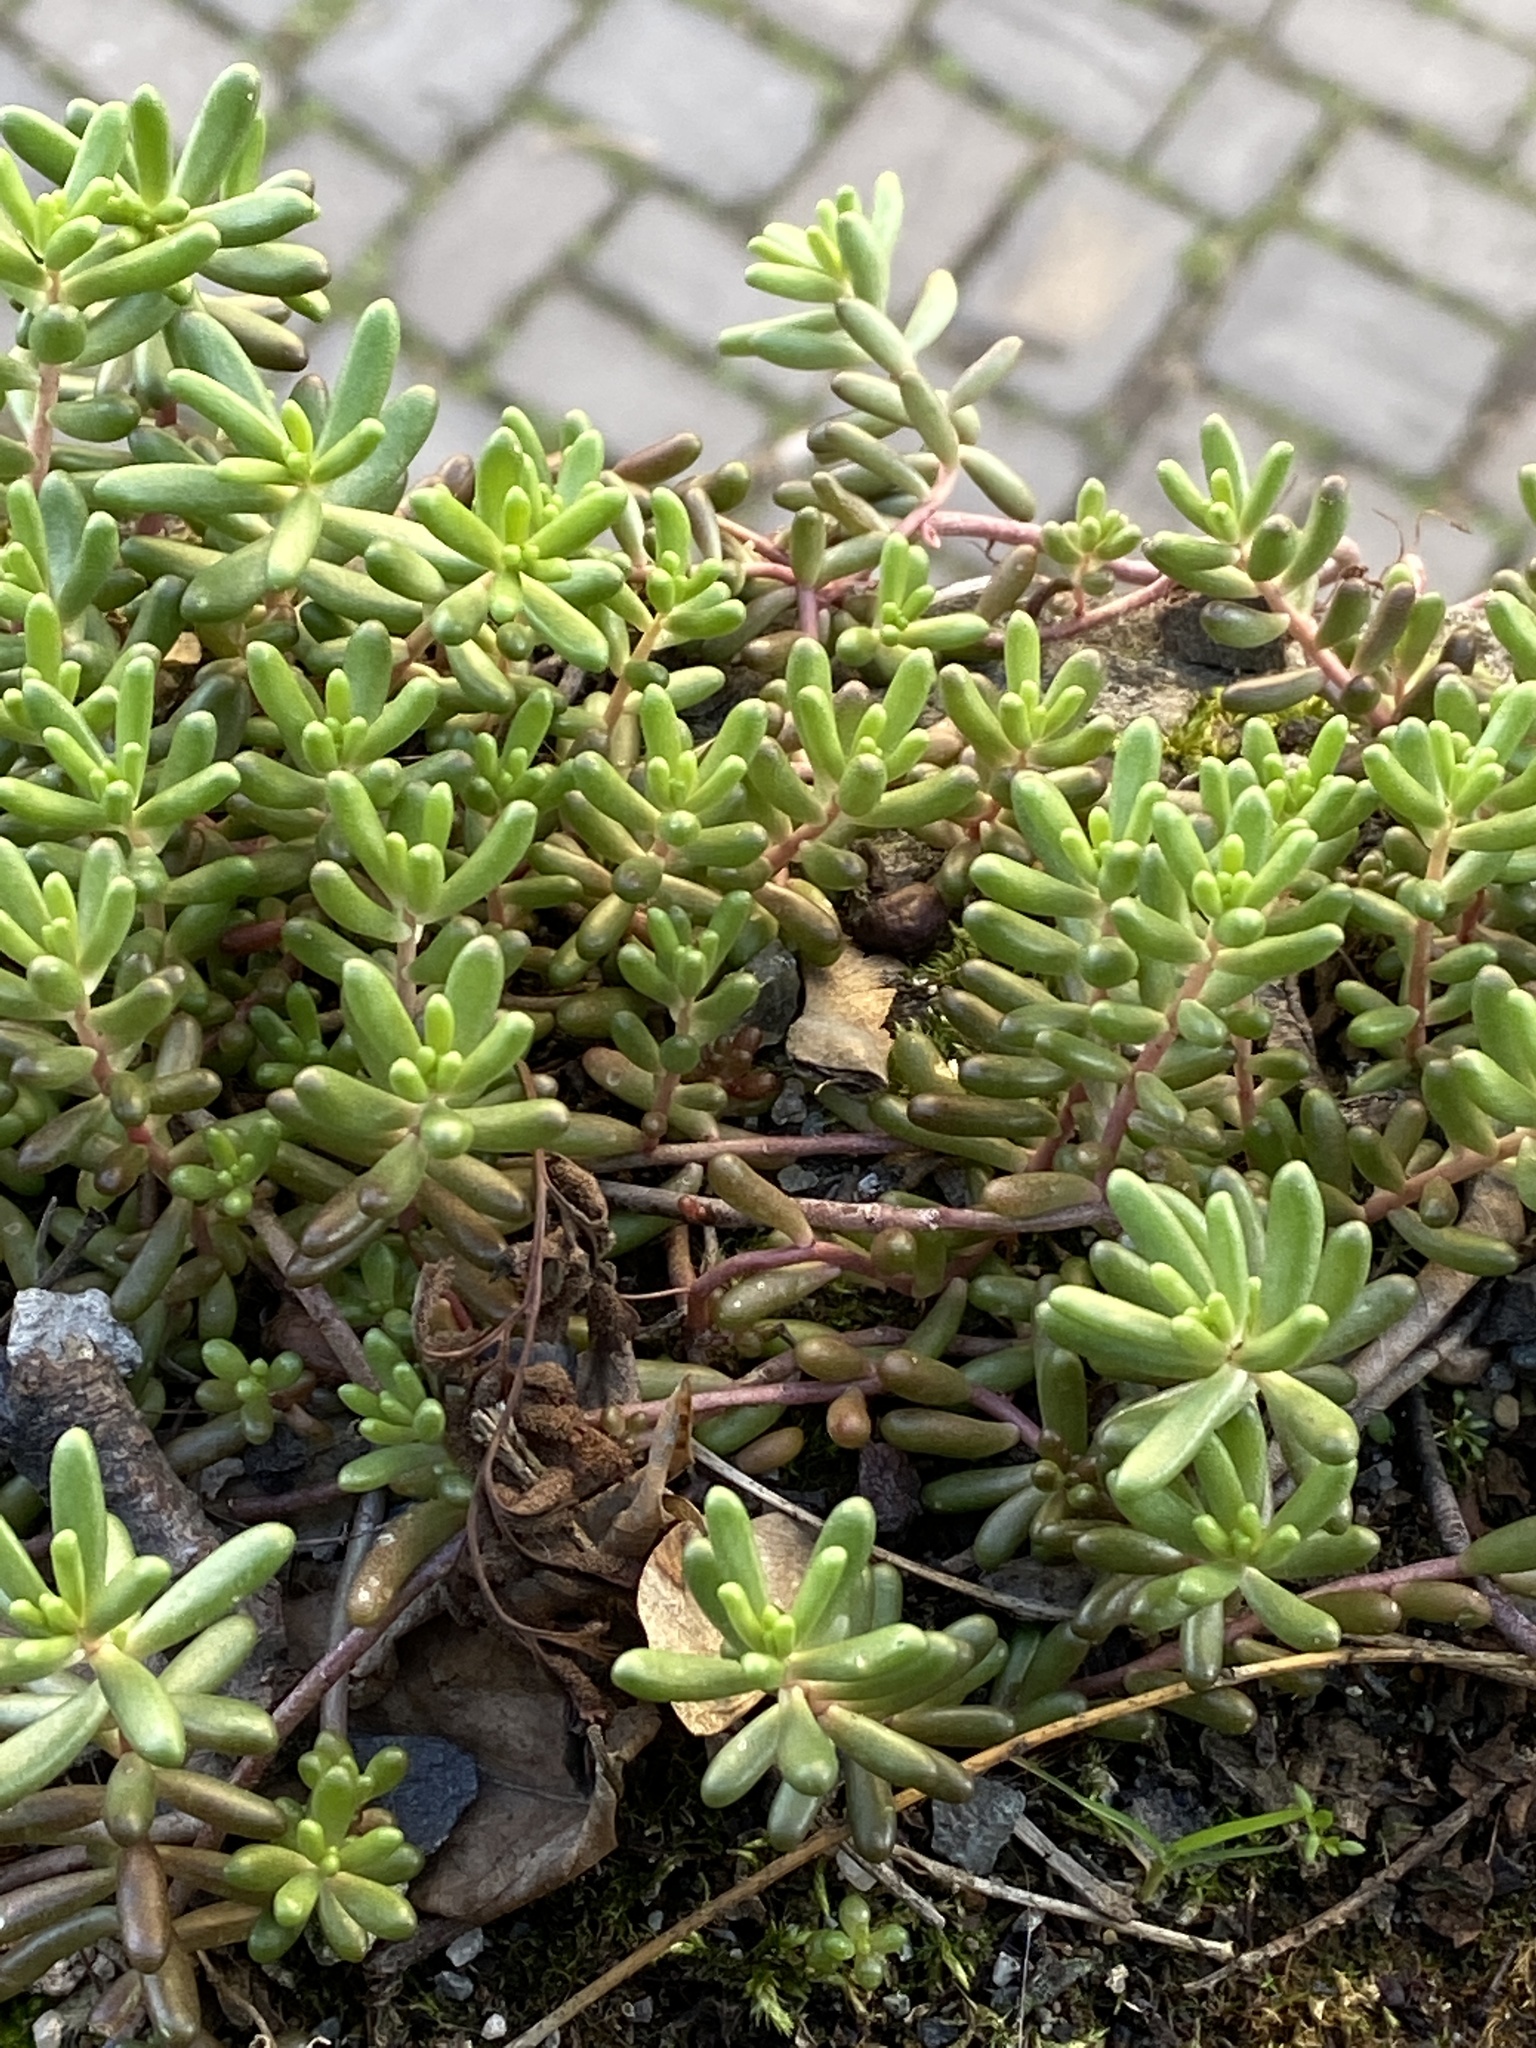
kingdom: Plantae
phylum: Tracheophyta
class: Magnoliopsida
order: Saxifragales
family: Crassulaceae
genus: Sedum
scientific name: Sedum album
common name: White stonecrop
